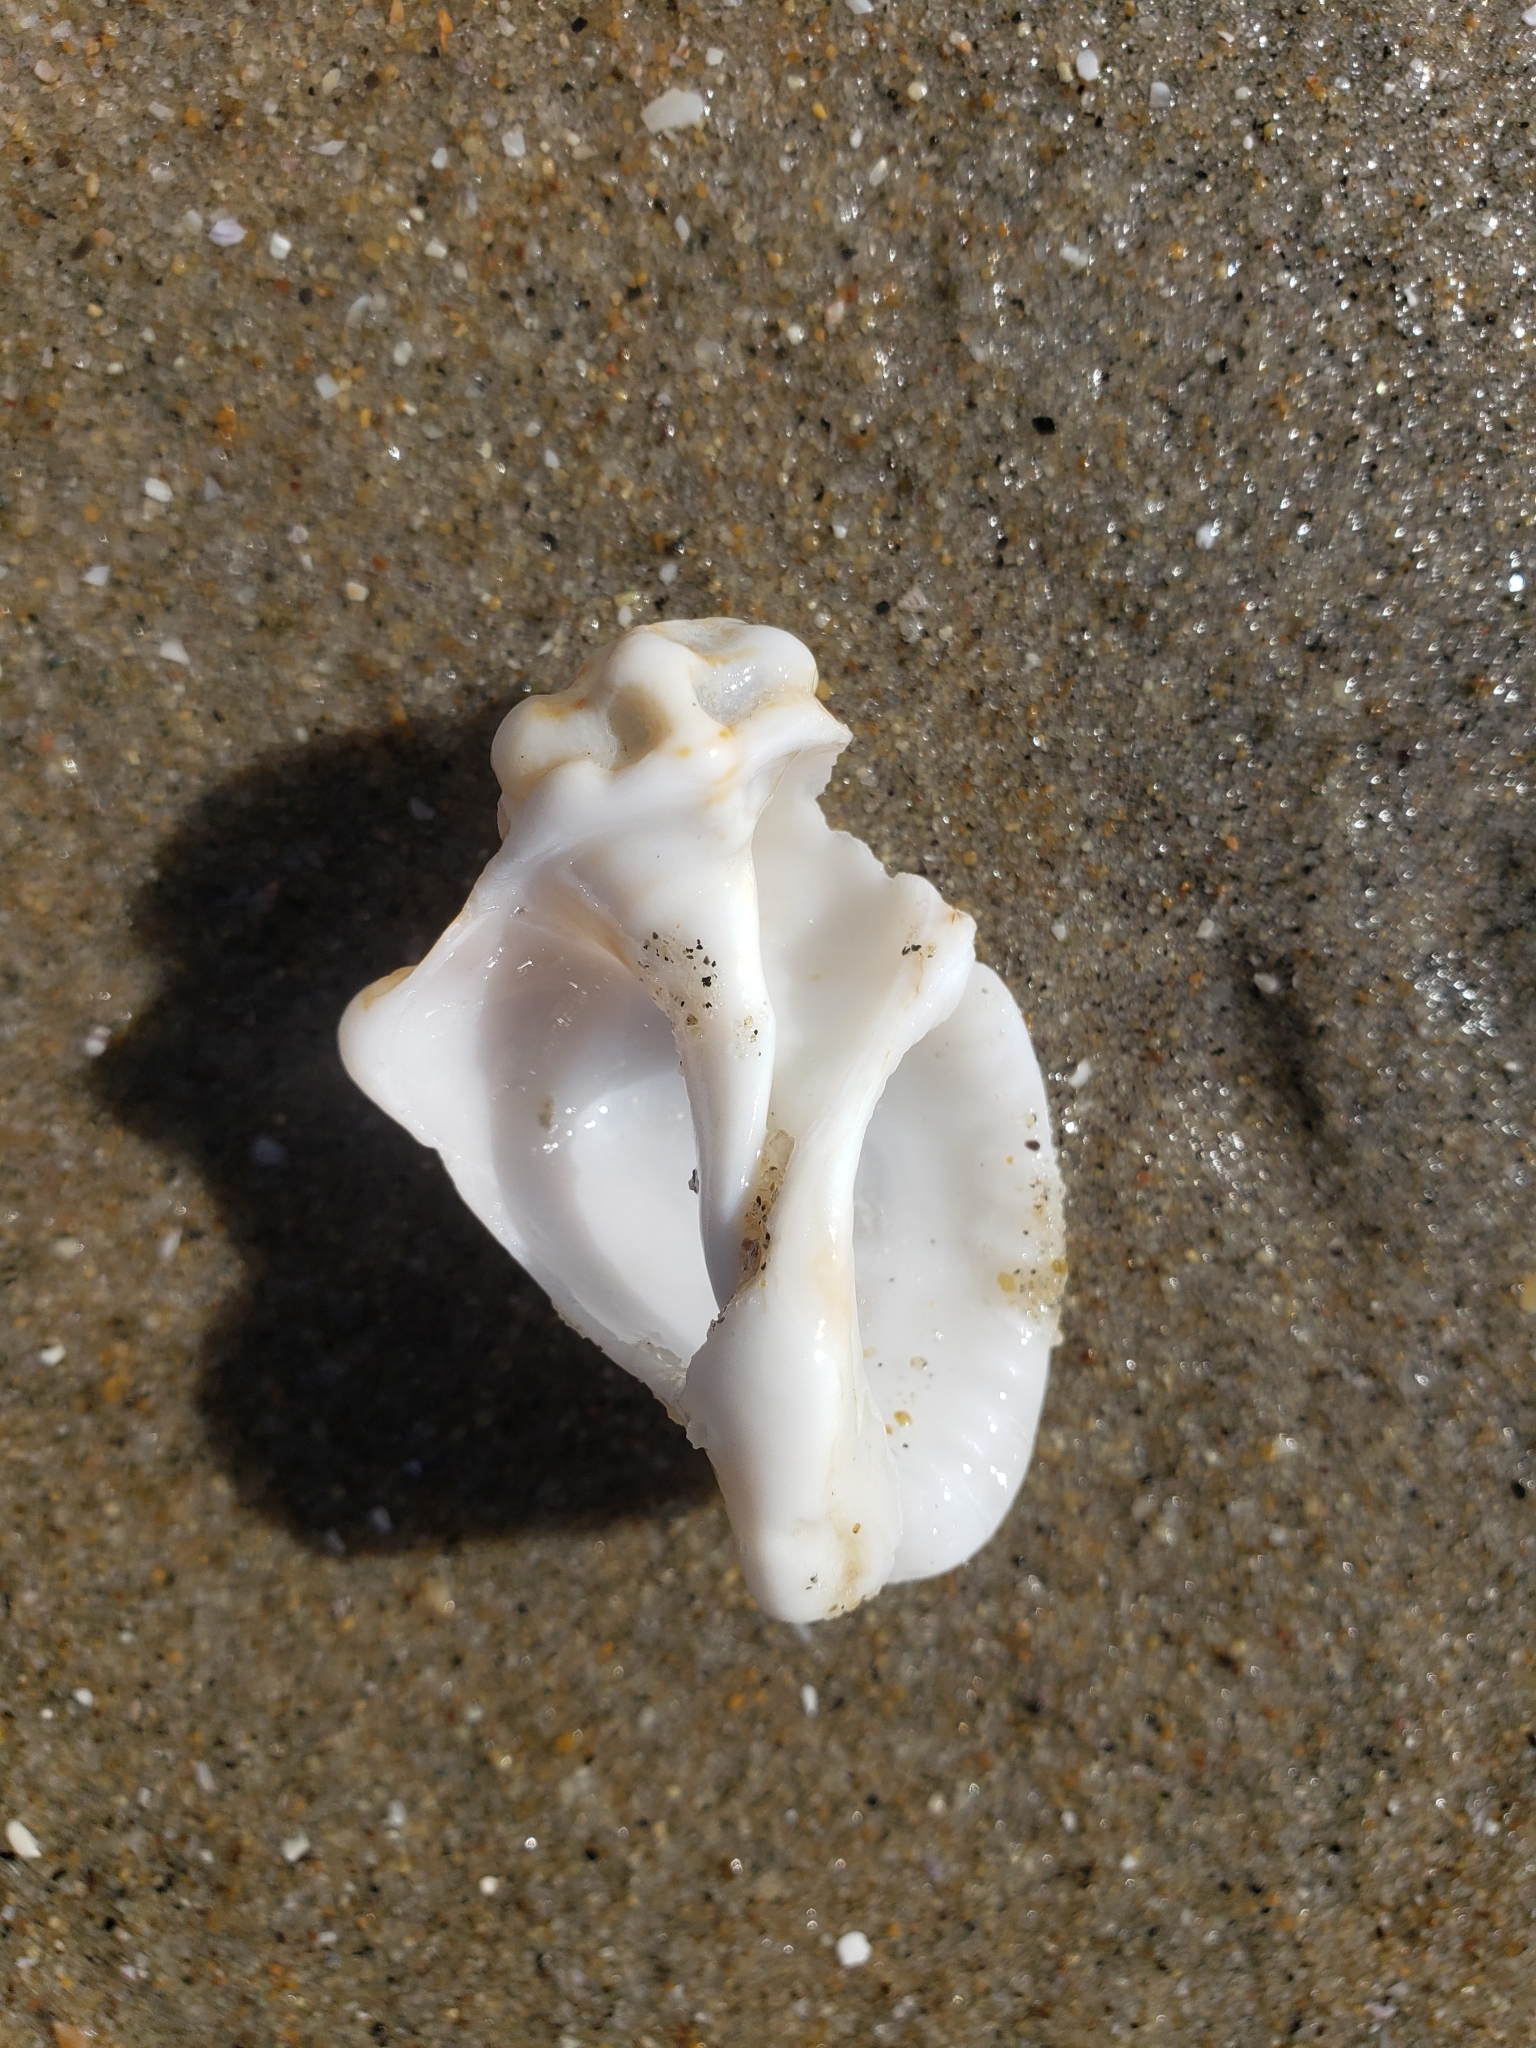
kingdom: Animalia
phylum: Mollusca
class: Gastropoda
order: Littorinimorpha
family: Bursidae
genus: Crossata
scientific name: Crossata californica
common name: California frogsnail
